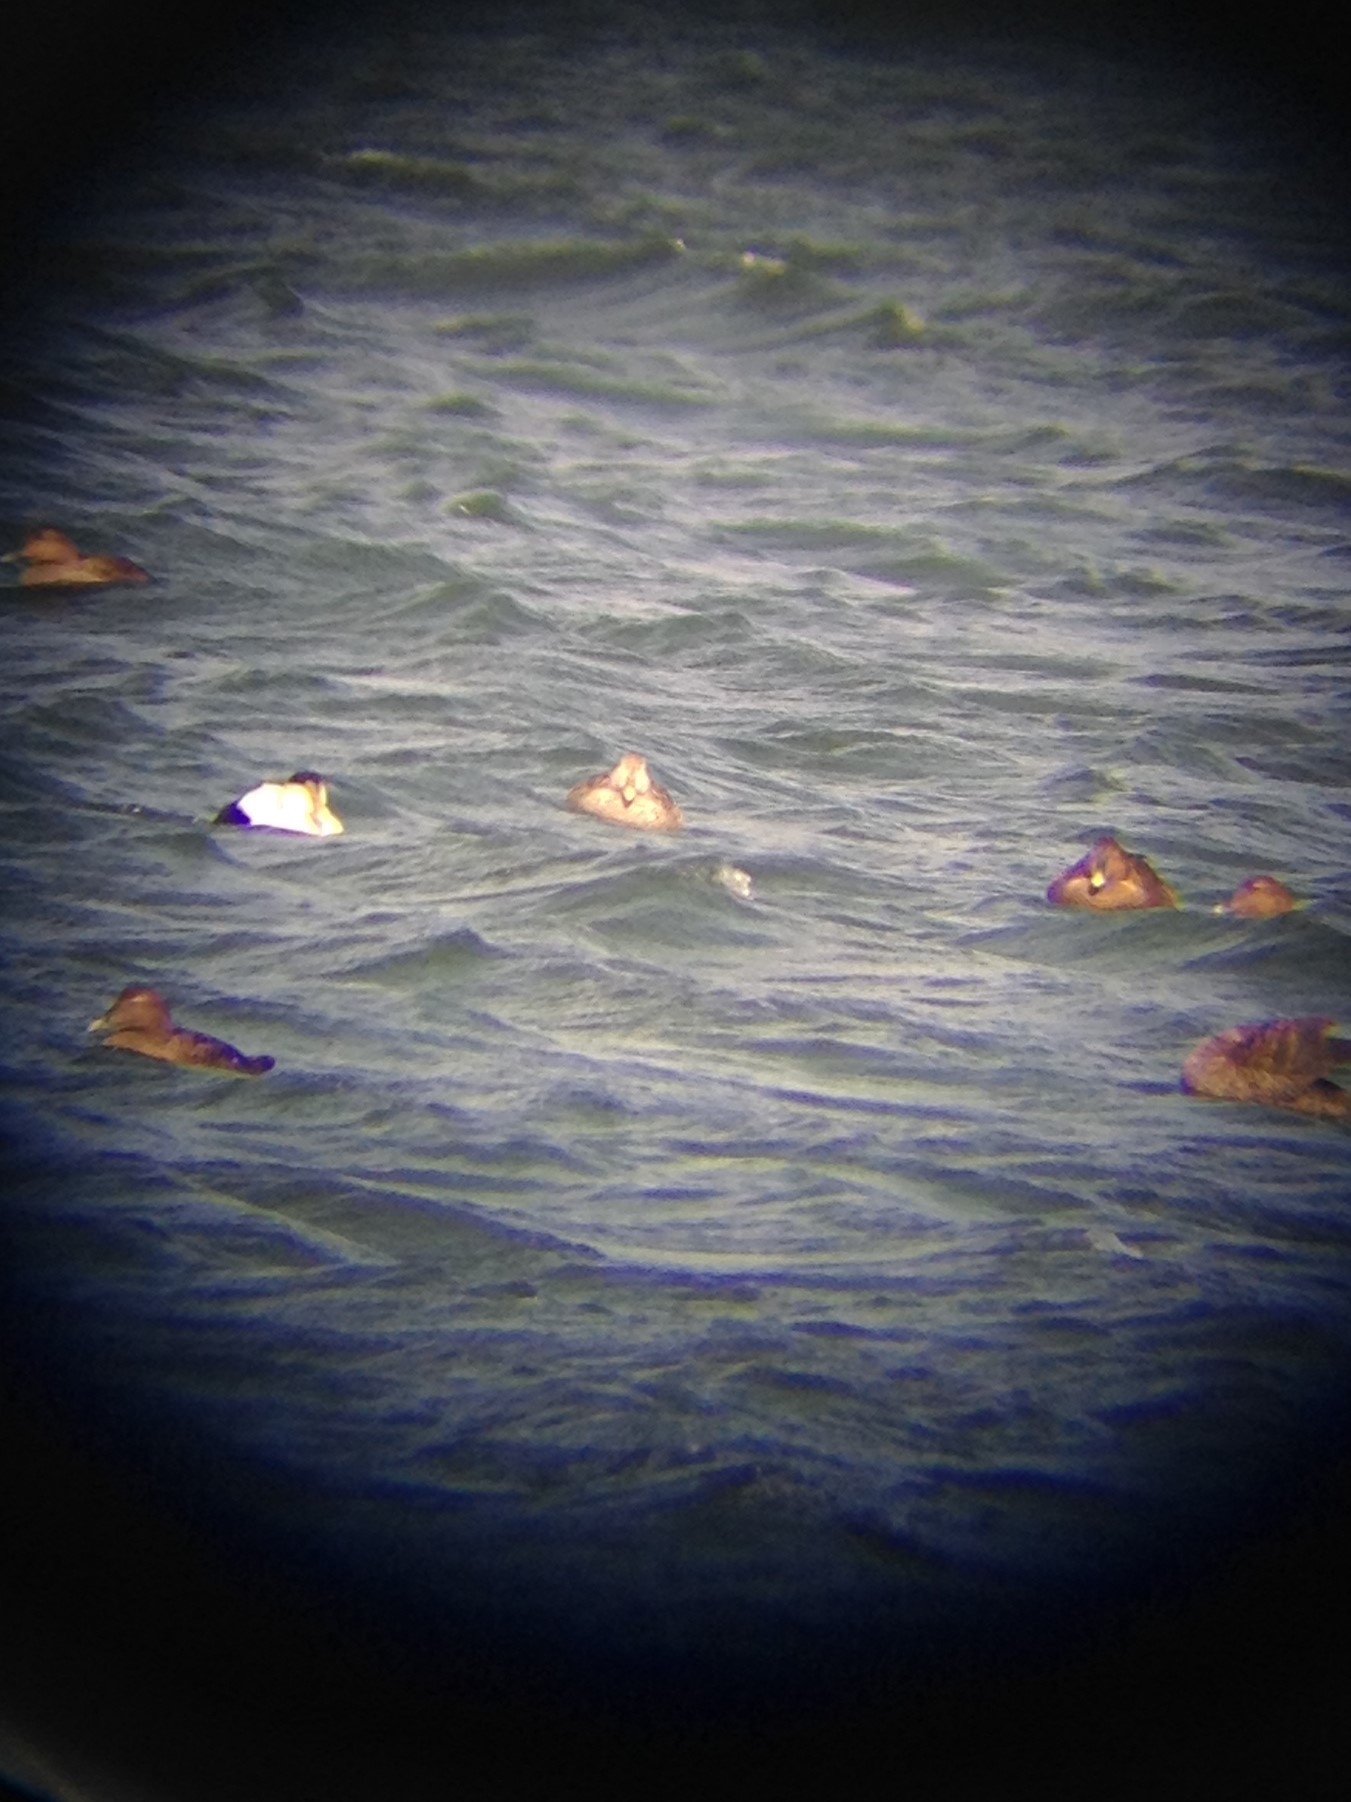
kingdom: Animalia
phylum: Chordata
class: Aves
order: Anseriformes
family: Anatidae
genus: Somateria
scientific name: Somateria mollissima
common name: Common eider
